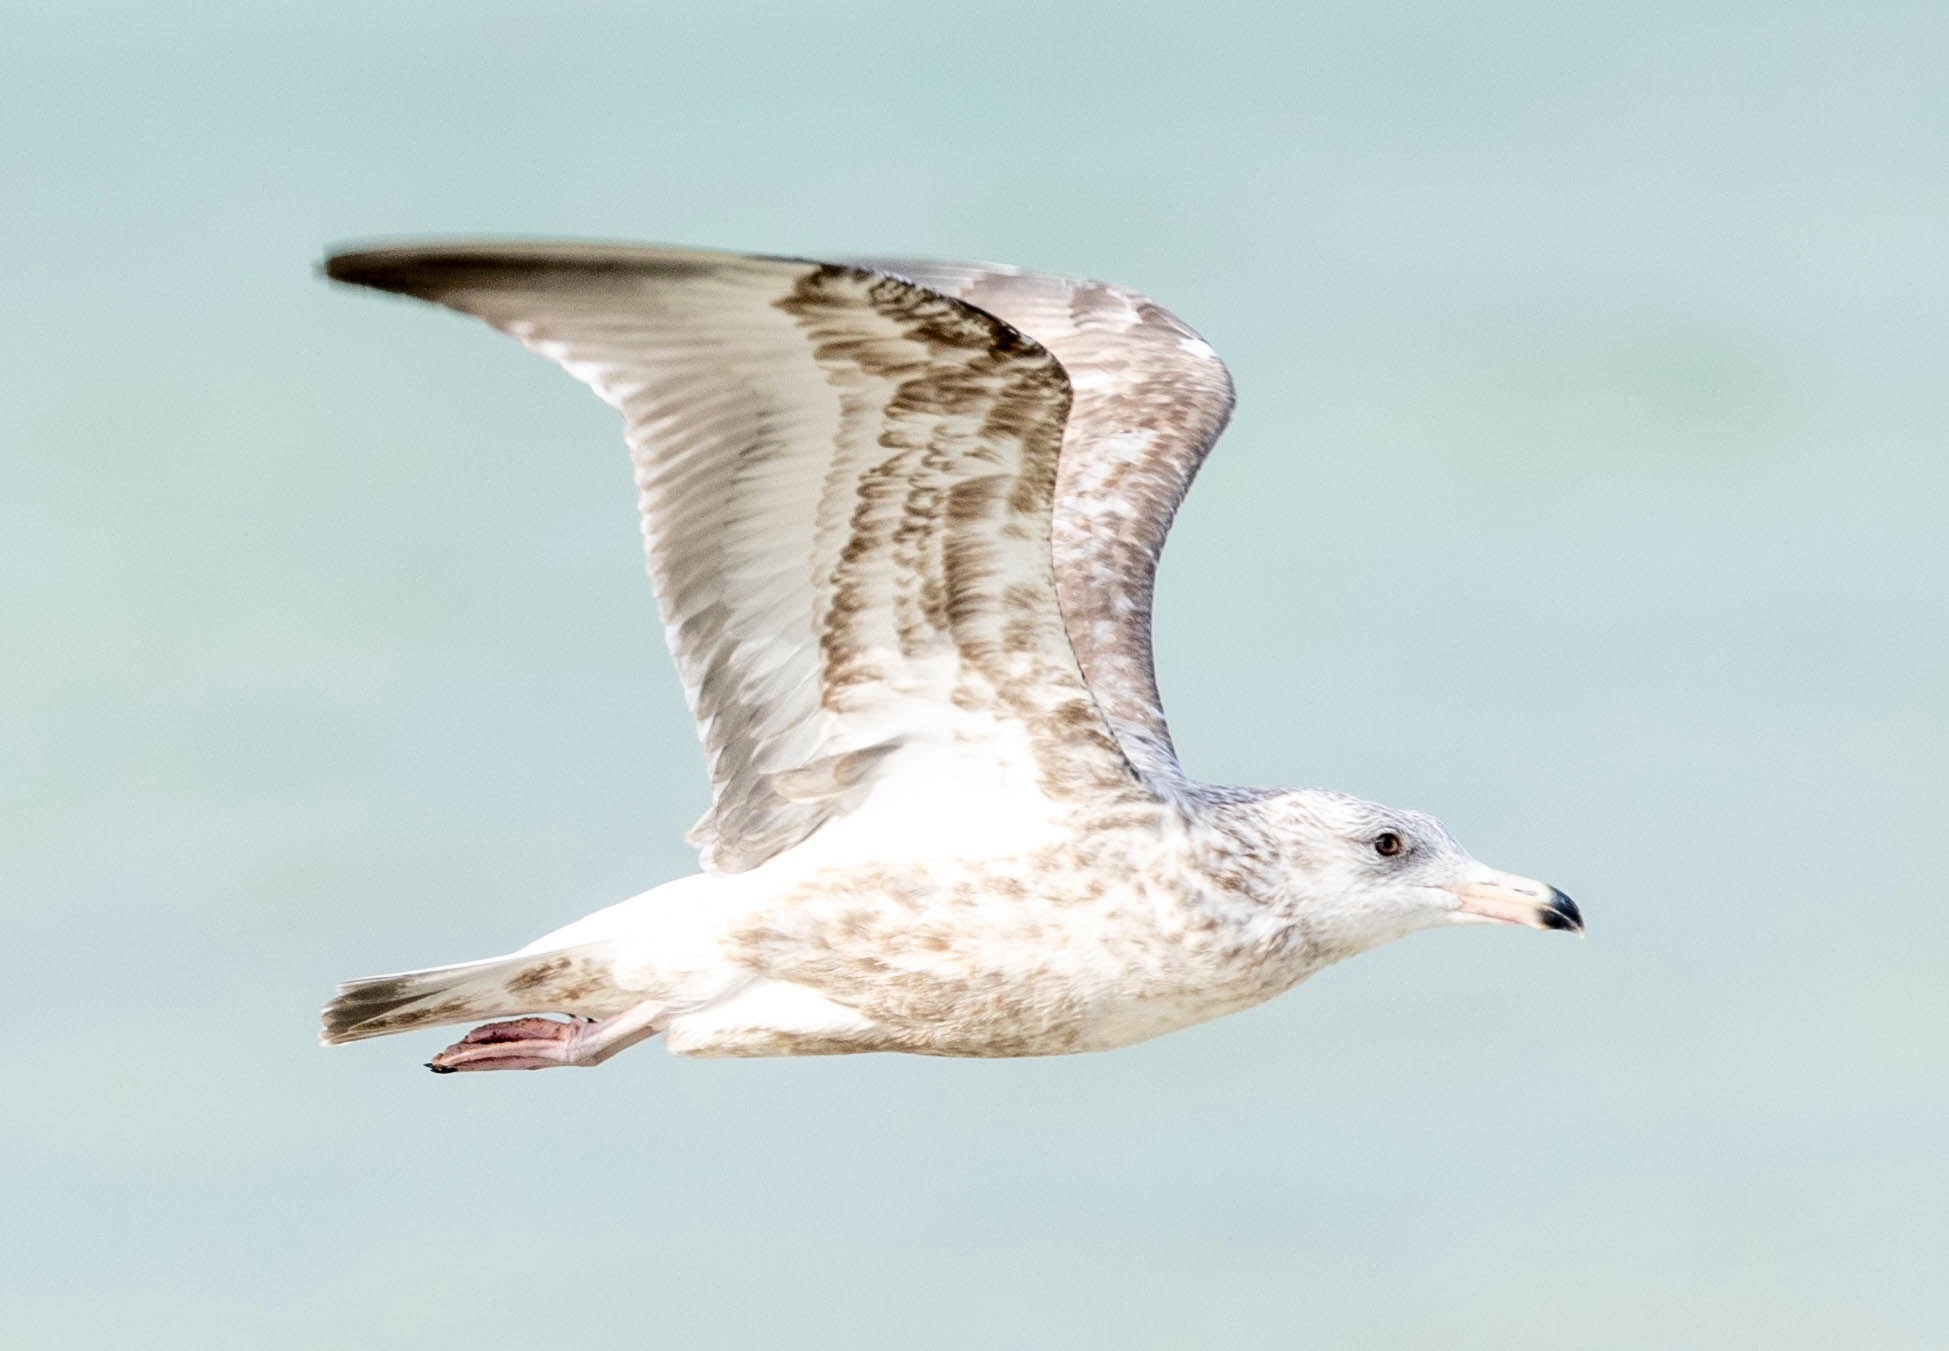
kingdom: Animalia
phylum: Chordata
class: Aves
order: Charadriiformes
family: Laridae
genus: Larus
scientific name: Larus argentatus
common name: Herring gull
